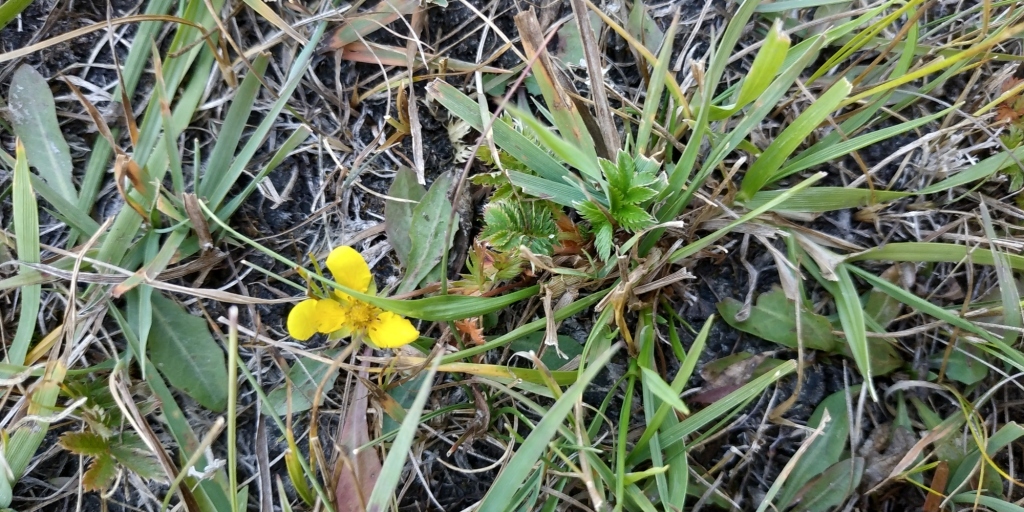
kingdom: Plantae
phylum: Tracheophyta
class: Magnoliopsida
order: Rosales
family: Rosaceae
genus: Argentina
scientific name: Argentina anserina
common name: Common silverweed
